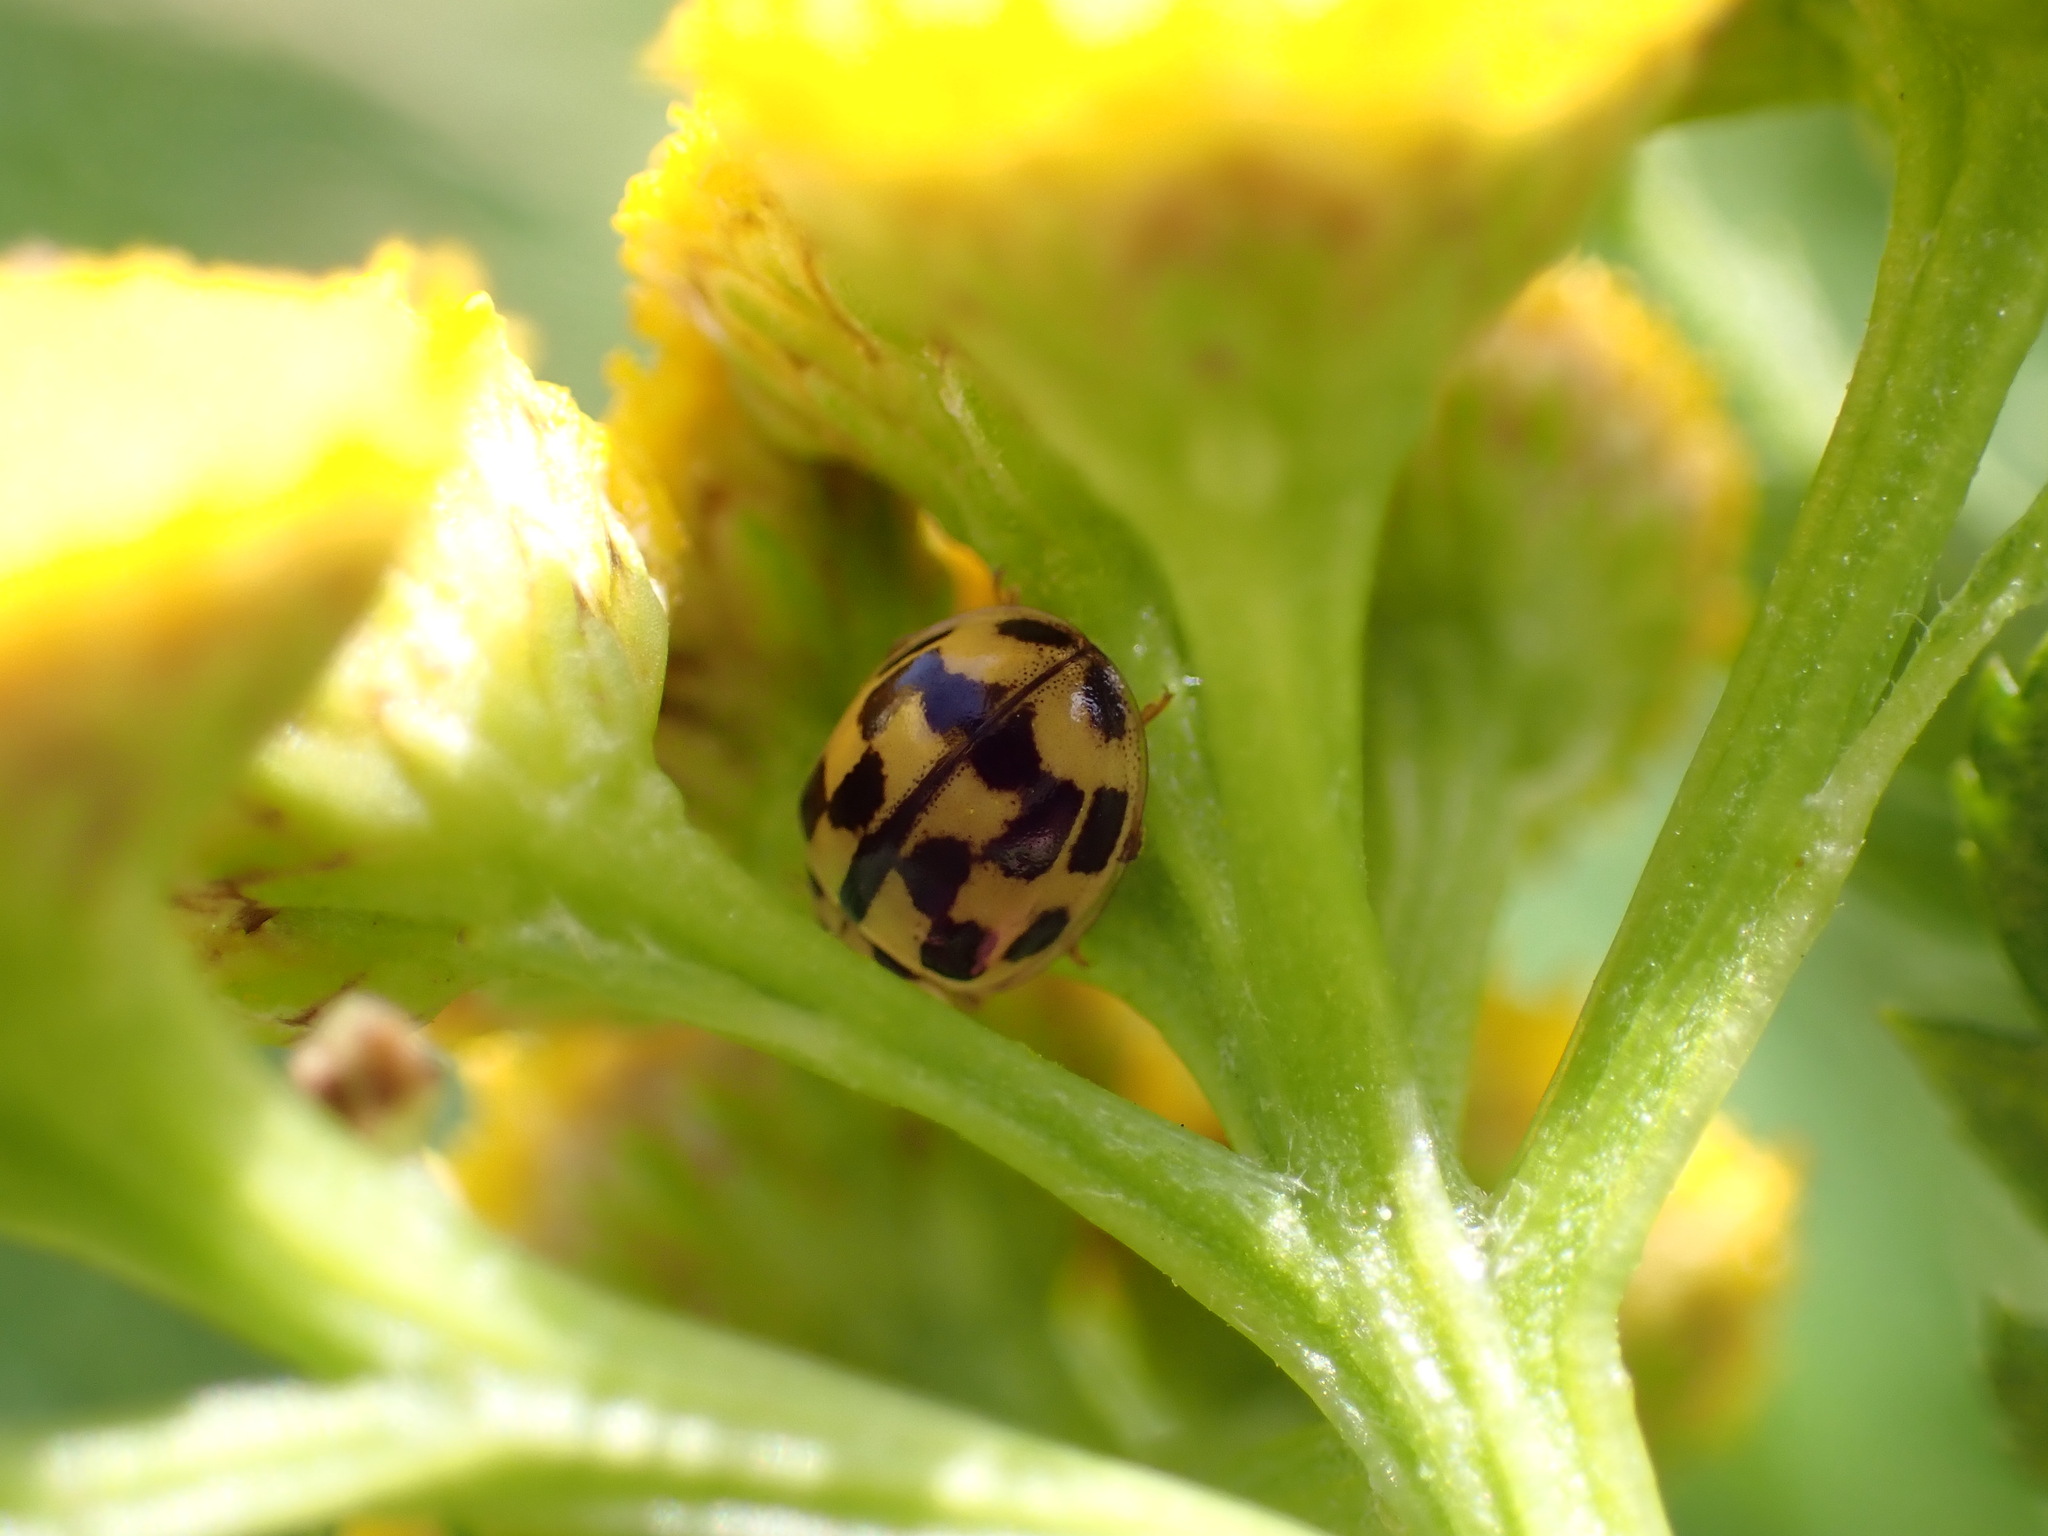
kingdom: Animalia
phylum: Arthropoda
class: Insecta
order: Coleoptera
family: Coccinellidae
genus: Propylaea
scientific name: Propylaea quatuordecimpunctata
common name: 14-spotted ladybird beetle
